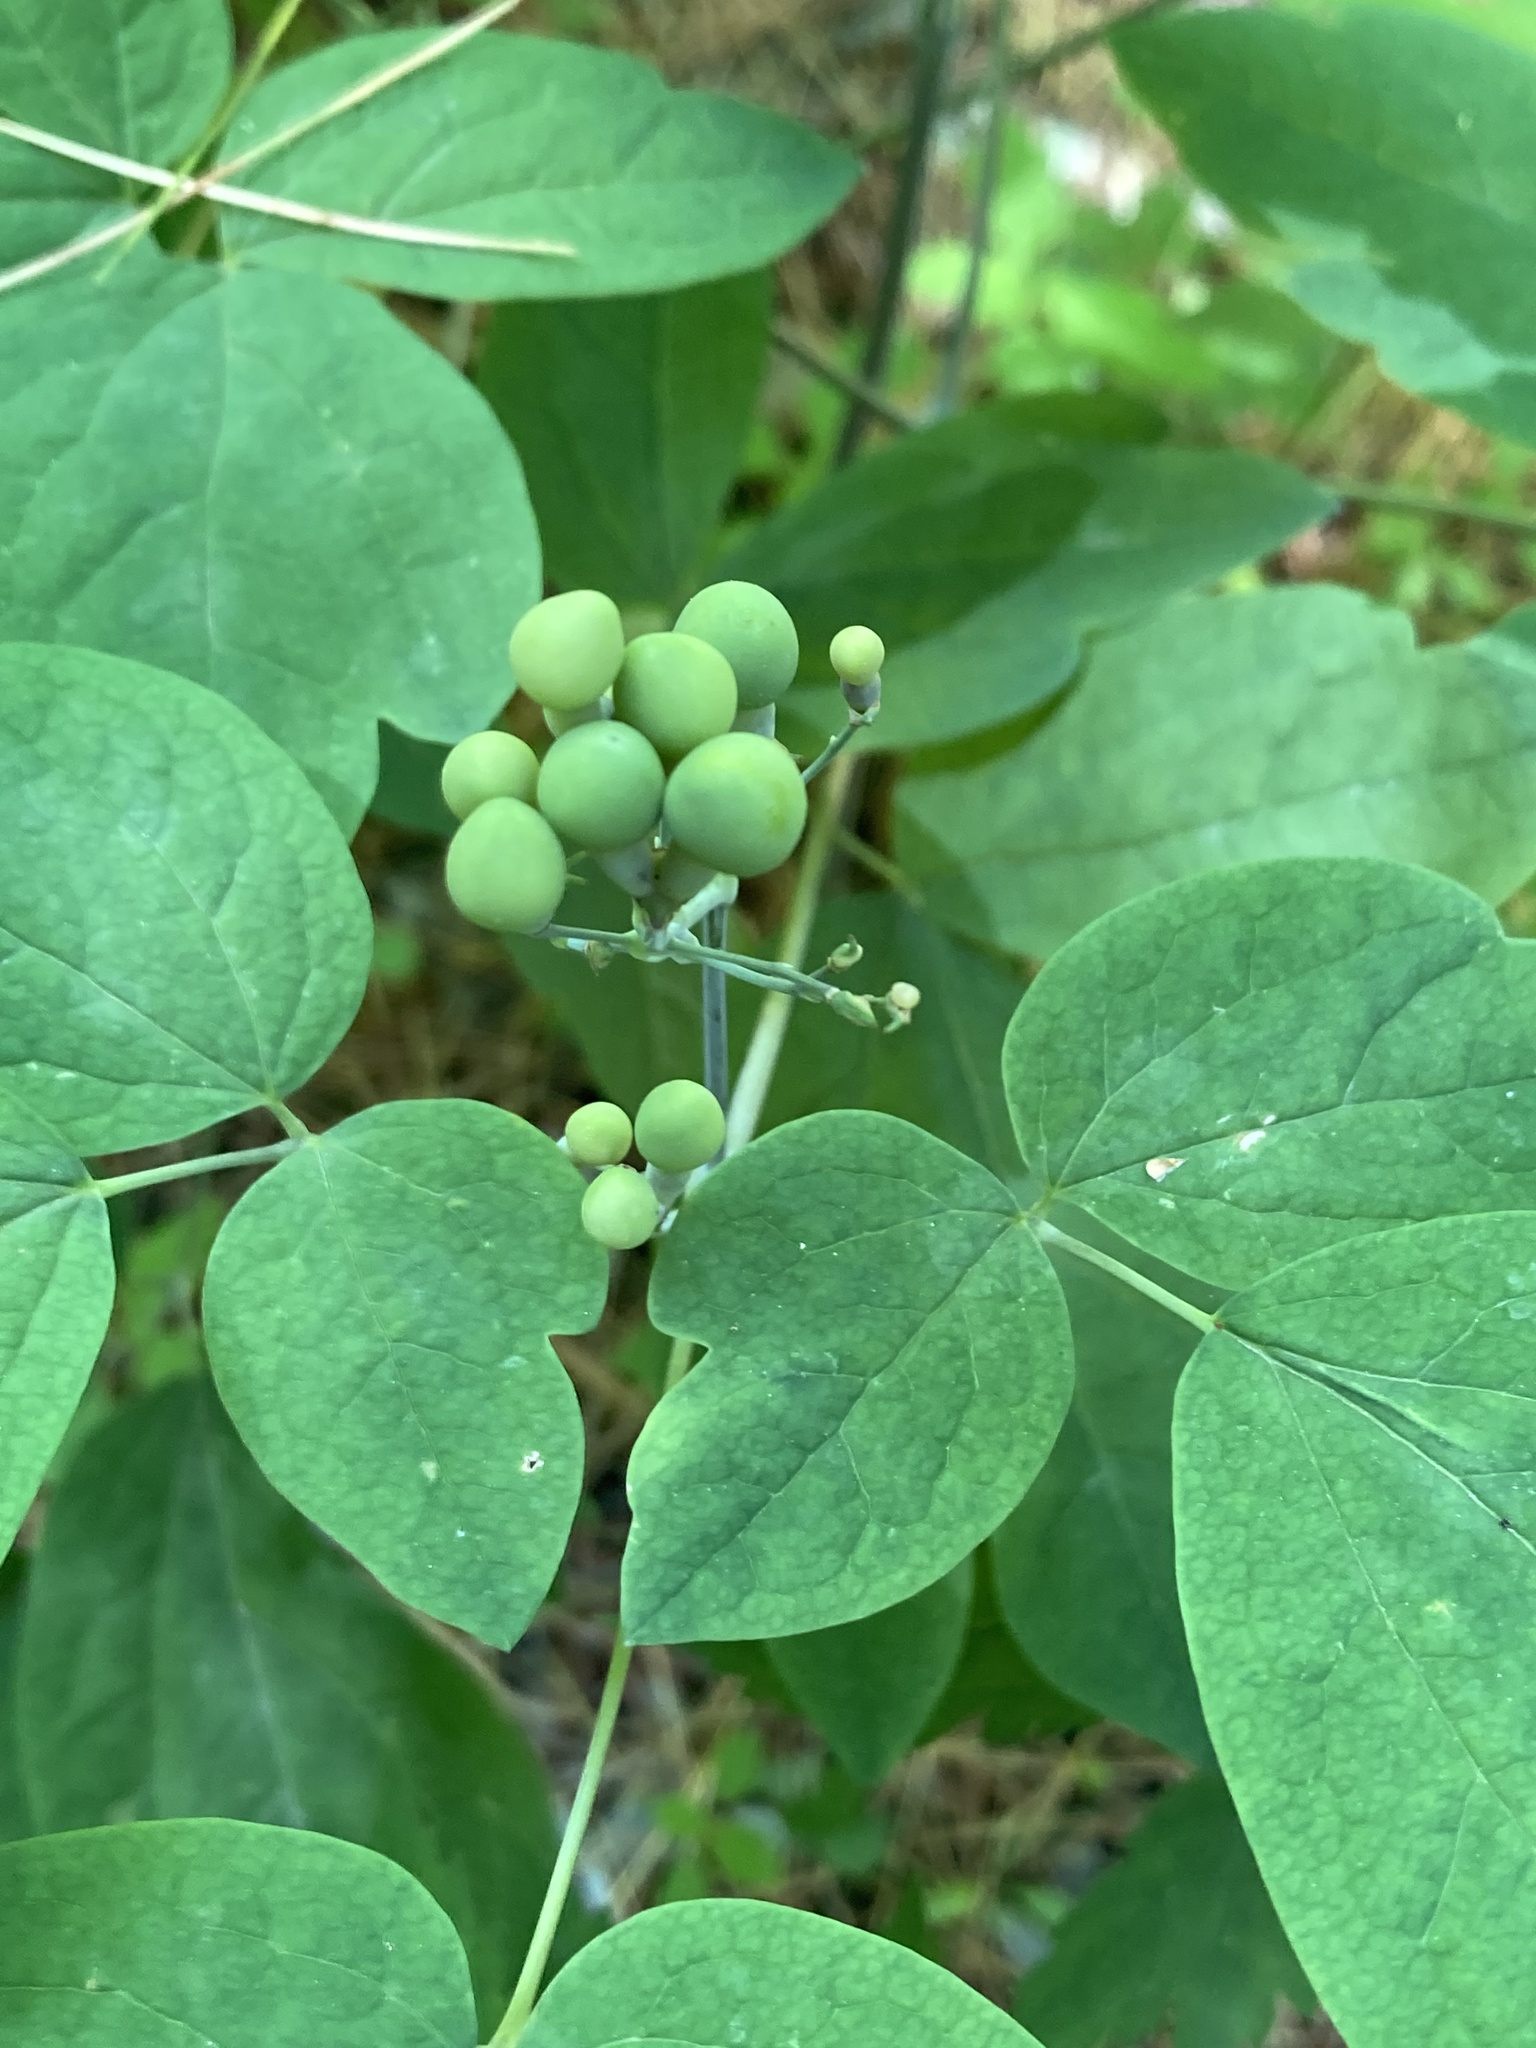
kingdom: Plantae
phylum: Tracheophyta
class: Magnoliopsida
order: Ranunculales
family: Berberidaceae
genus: Caulophyllum
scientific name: Caulophyllum thalictroides
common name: Blue cohosh
